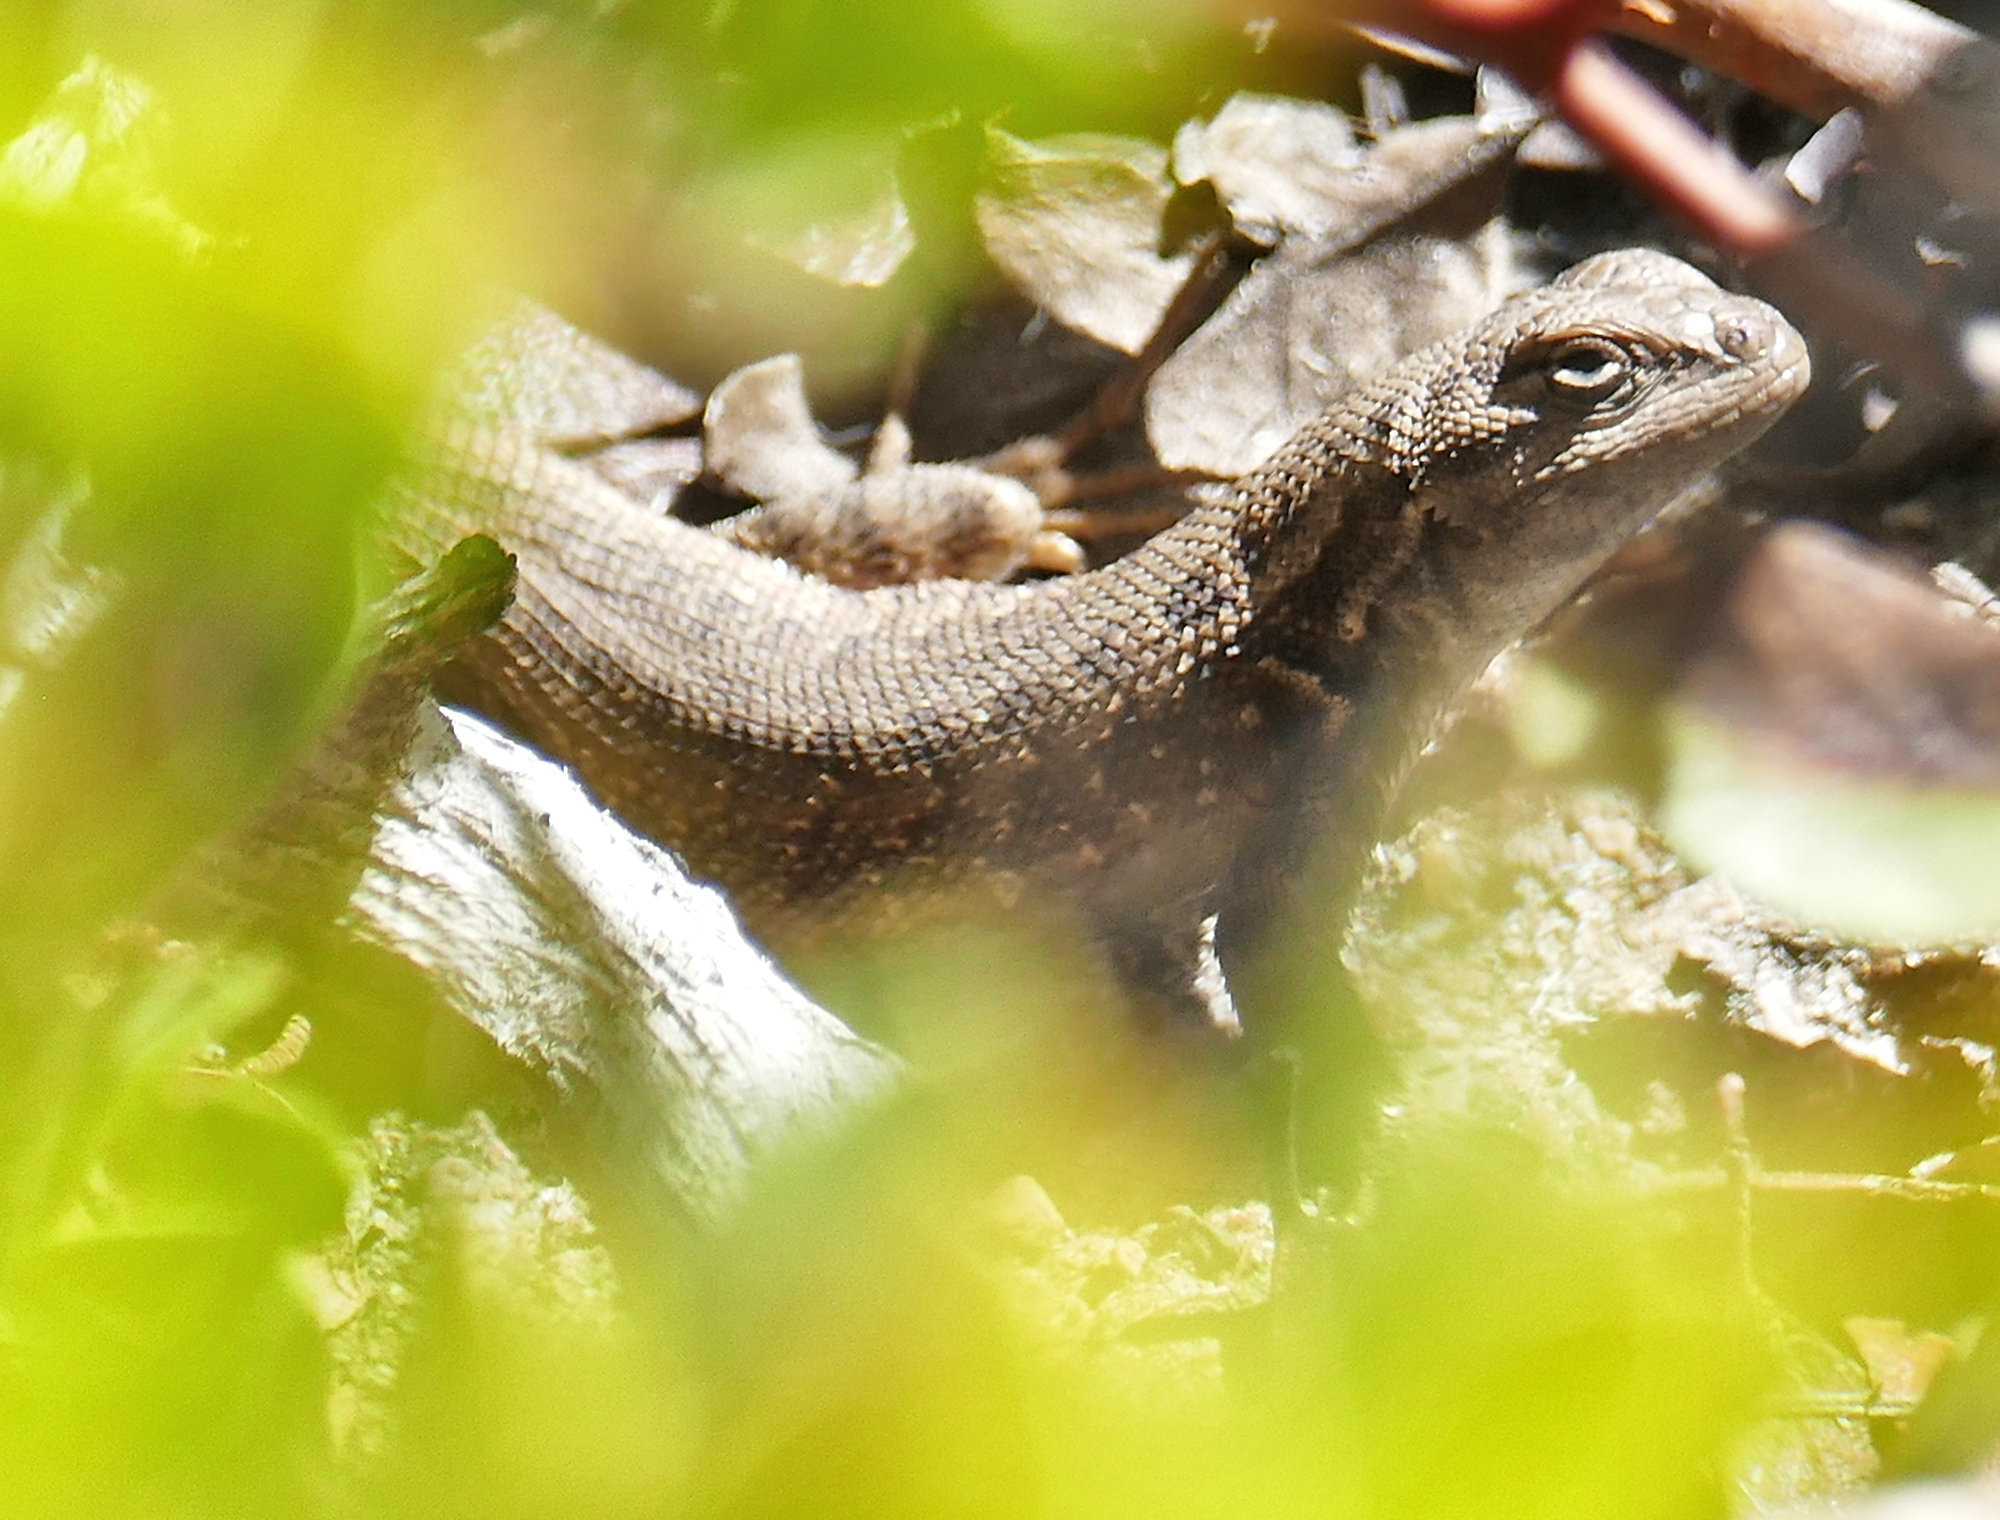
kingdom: Animalia
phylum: Chordata
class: Squamata
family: Phrynosomatidae
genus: Sceloporus
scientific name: Sceloporus tristichus
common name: Plateau fence lizard
